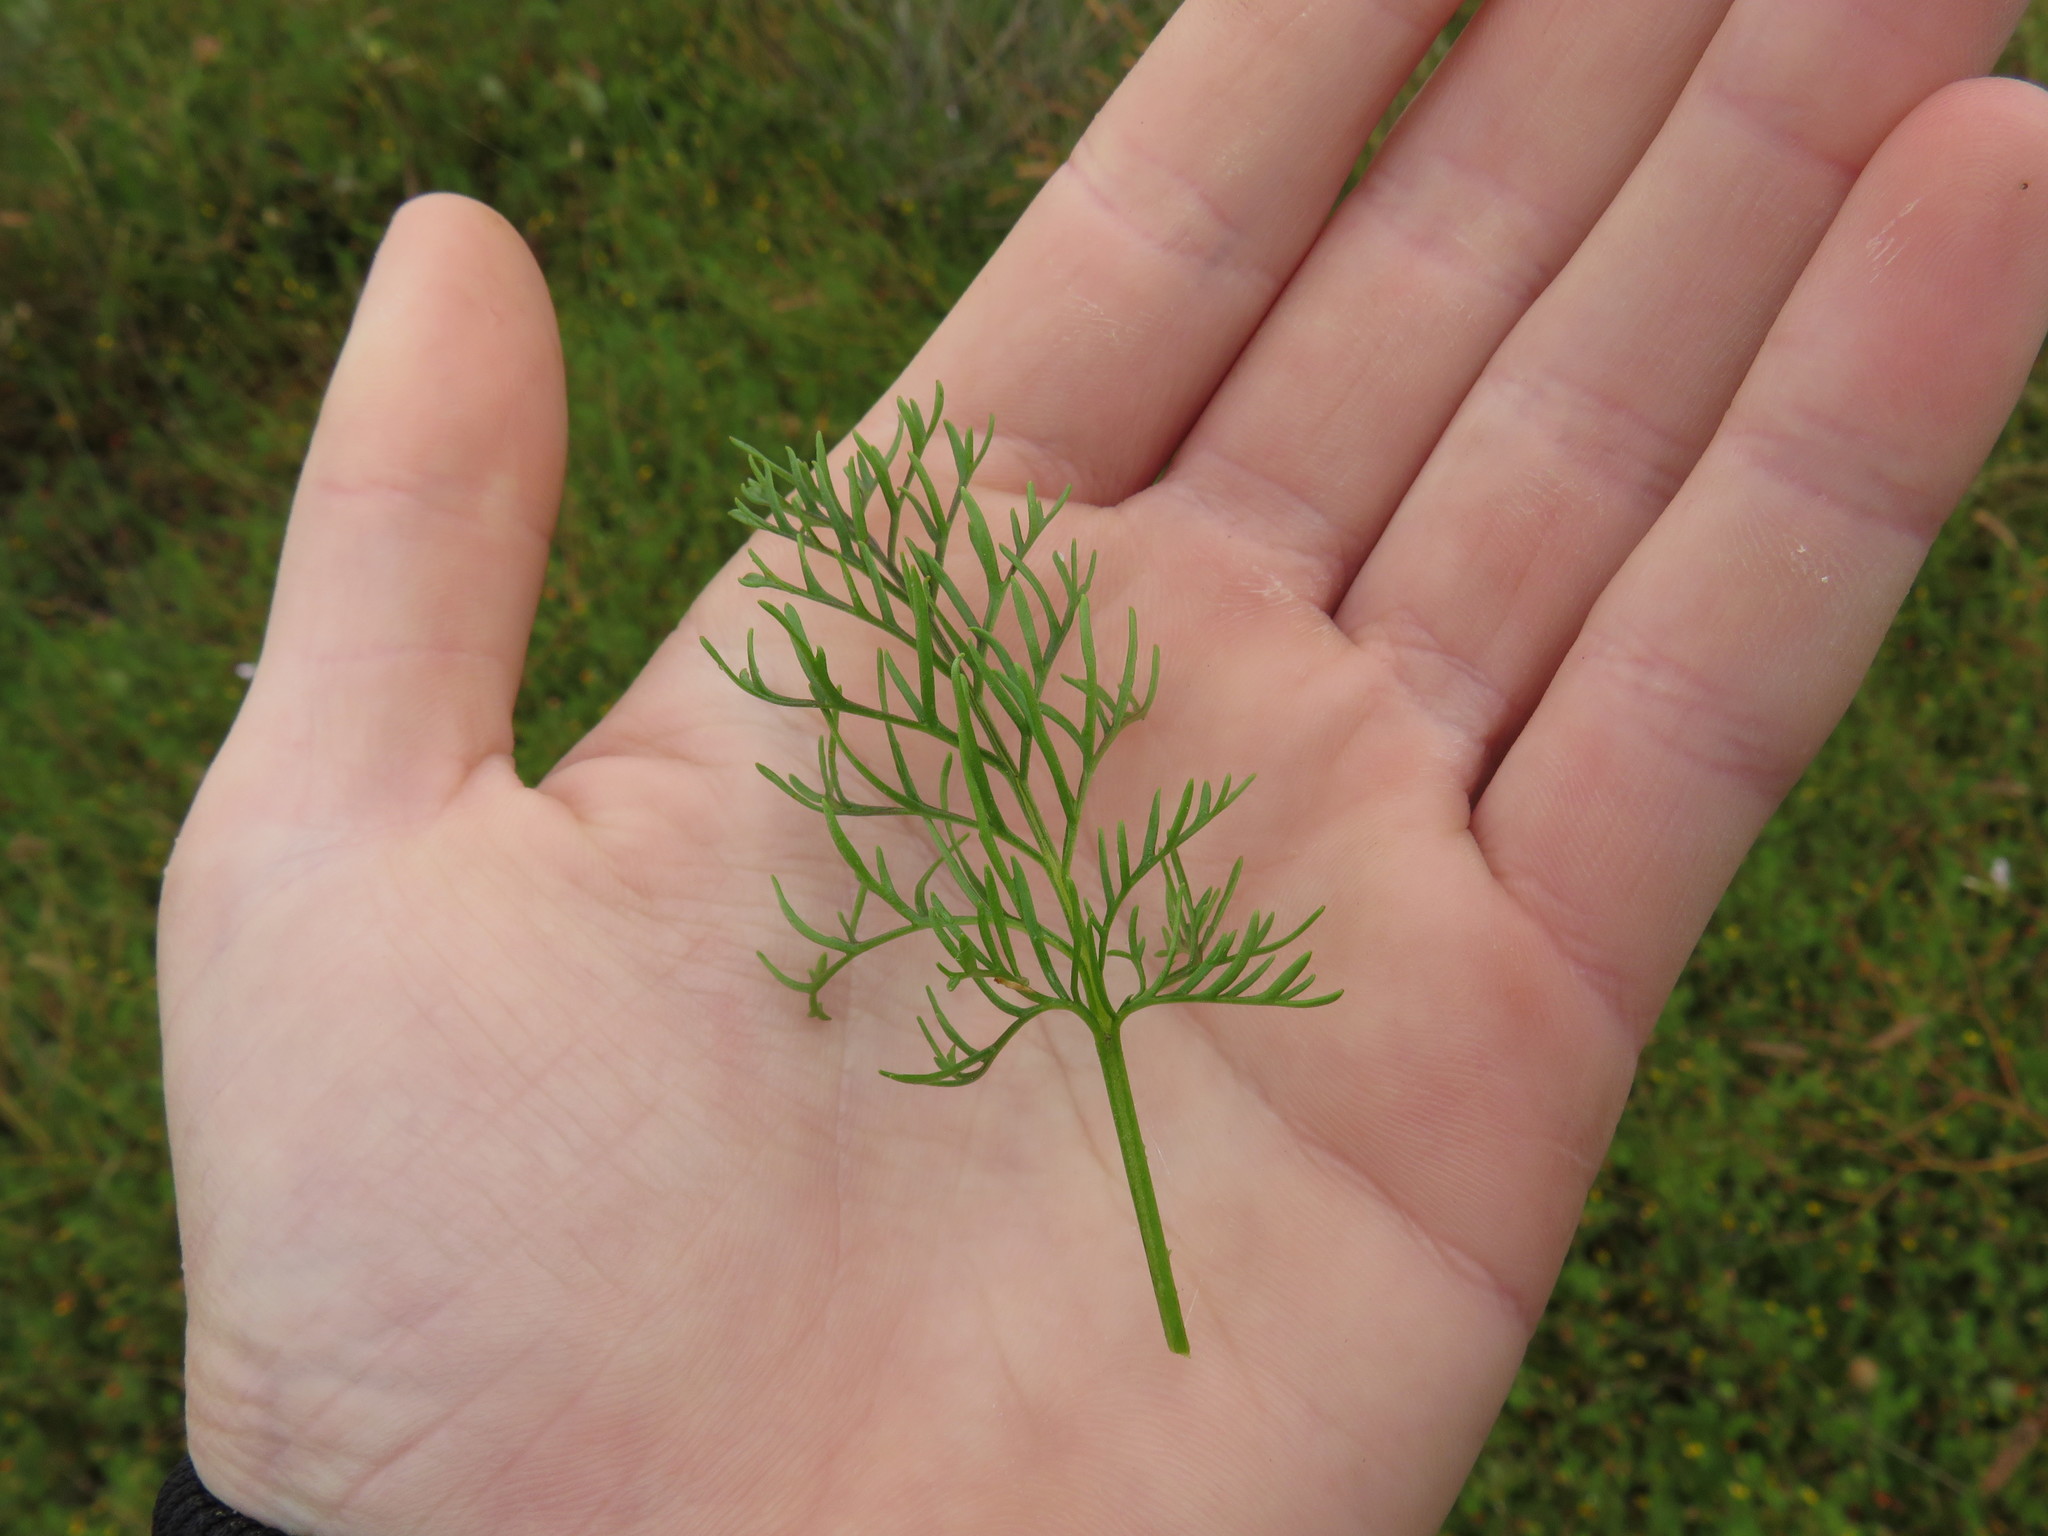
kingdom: Plantae
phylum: Tracheophyta
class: Magnoliopsida
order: Geraniales
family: Geraniaceae
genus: Pelargonium
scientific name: Pelargonium myrrhifolium
